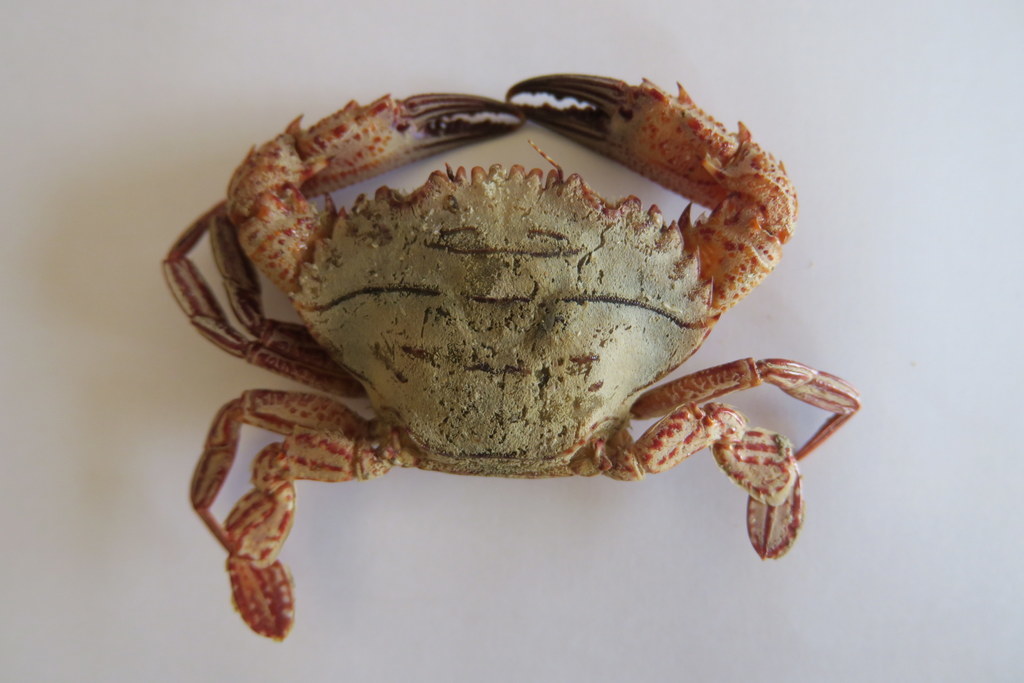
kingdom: Animalia
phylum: Arthropoda
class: Malacostraca
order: Decapoda
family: Portunidae
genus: Charybdis
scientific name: Charybdis natator
